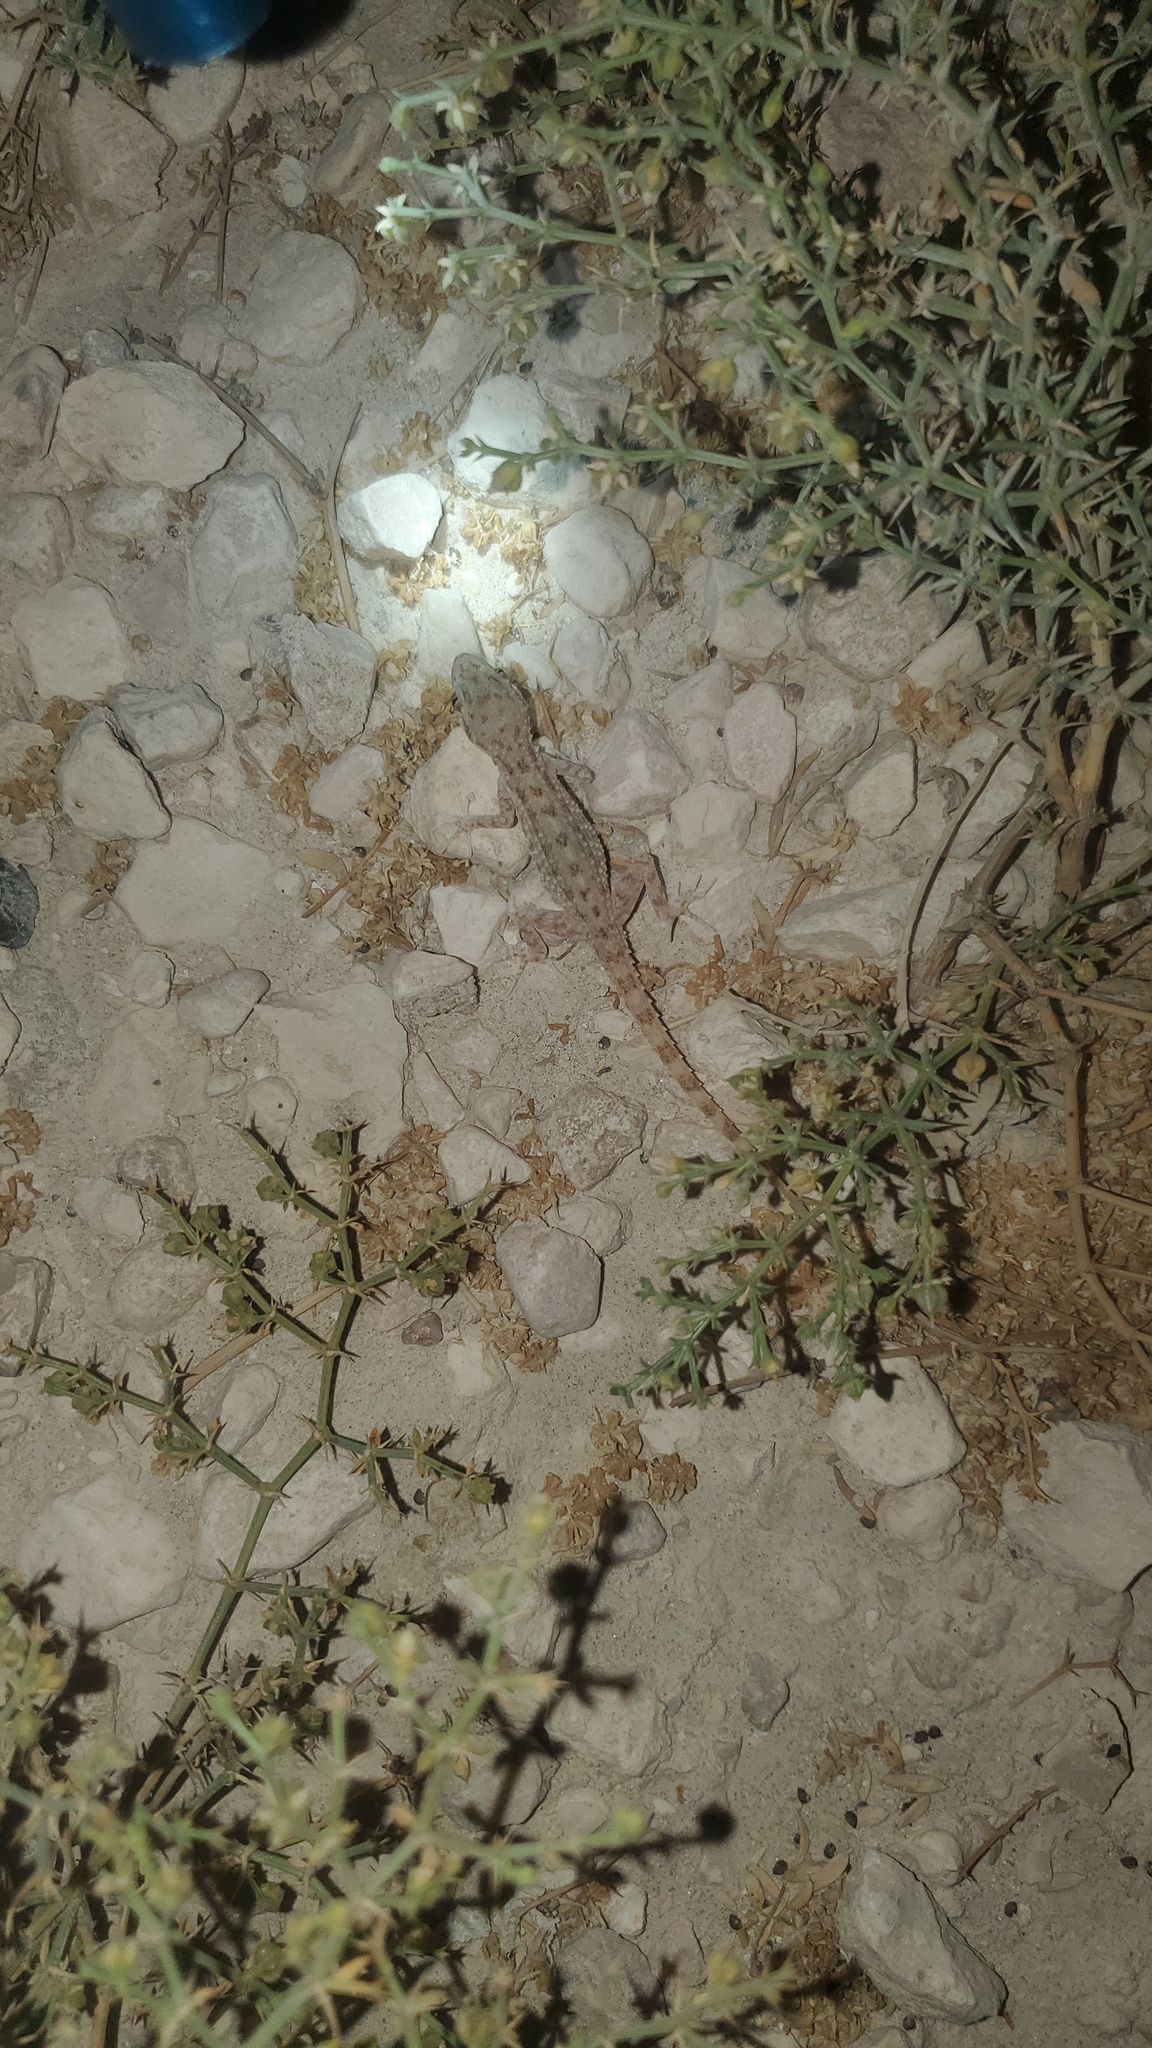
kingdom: Animalia
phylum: Chordata
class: Squamata
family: Gekkonidae
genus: Cyrtopodion
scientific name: Cyrtopodion scabrum
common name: Rough-tailed gecko
